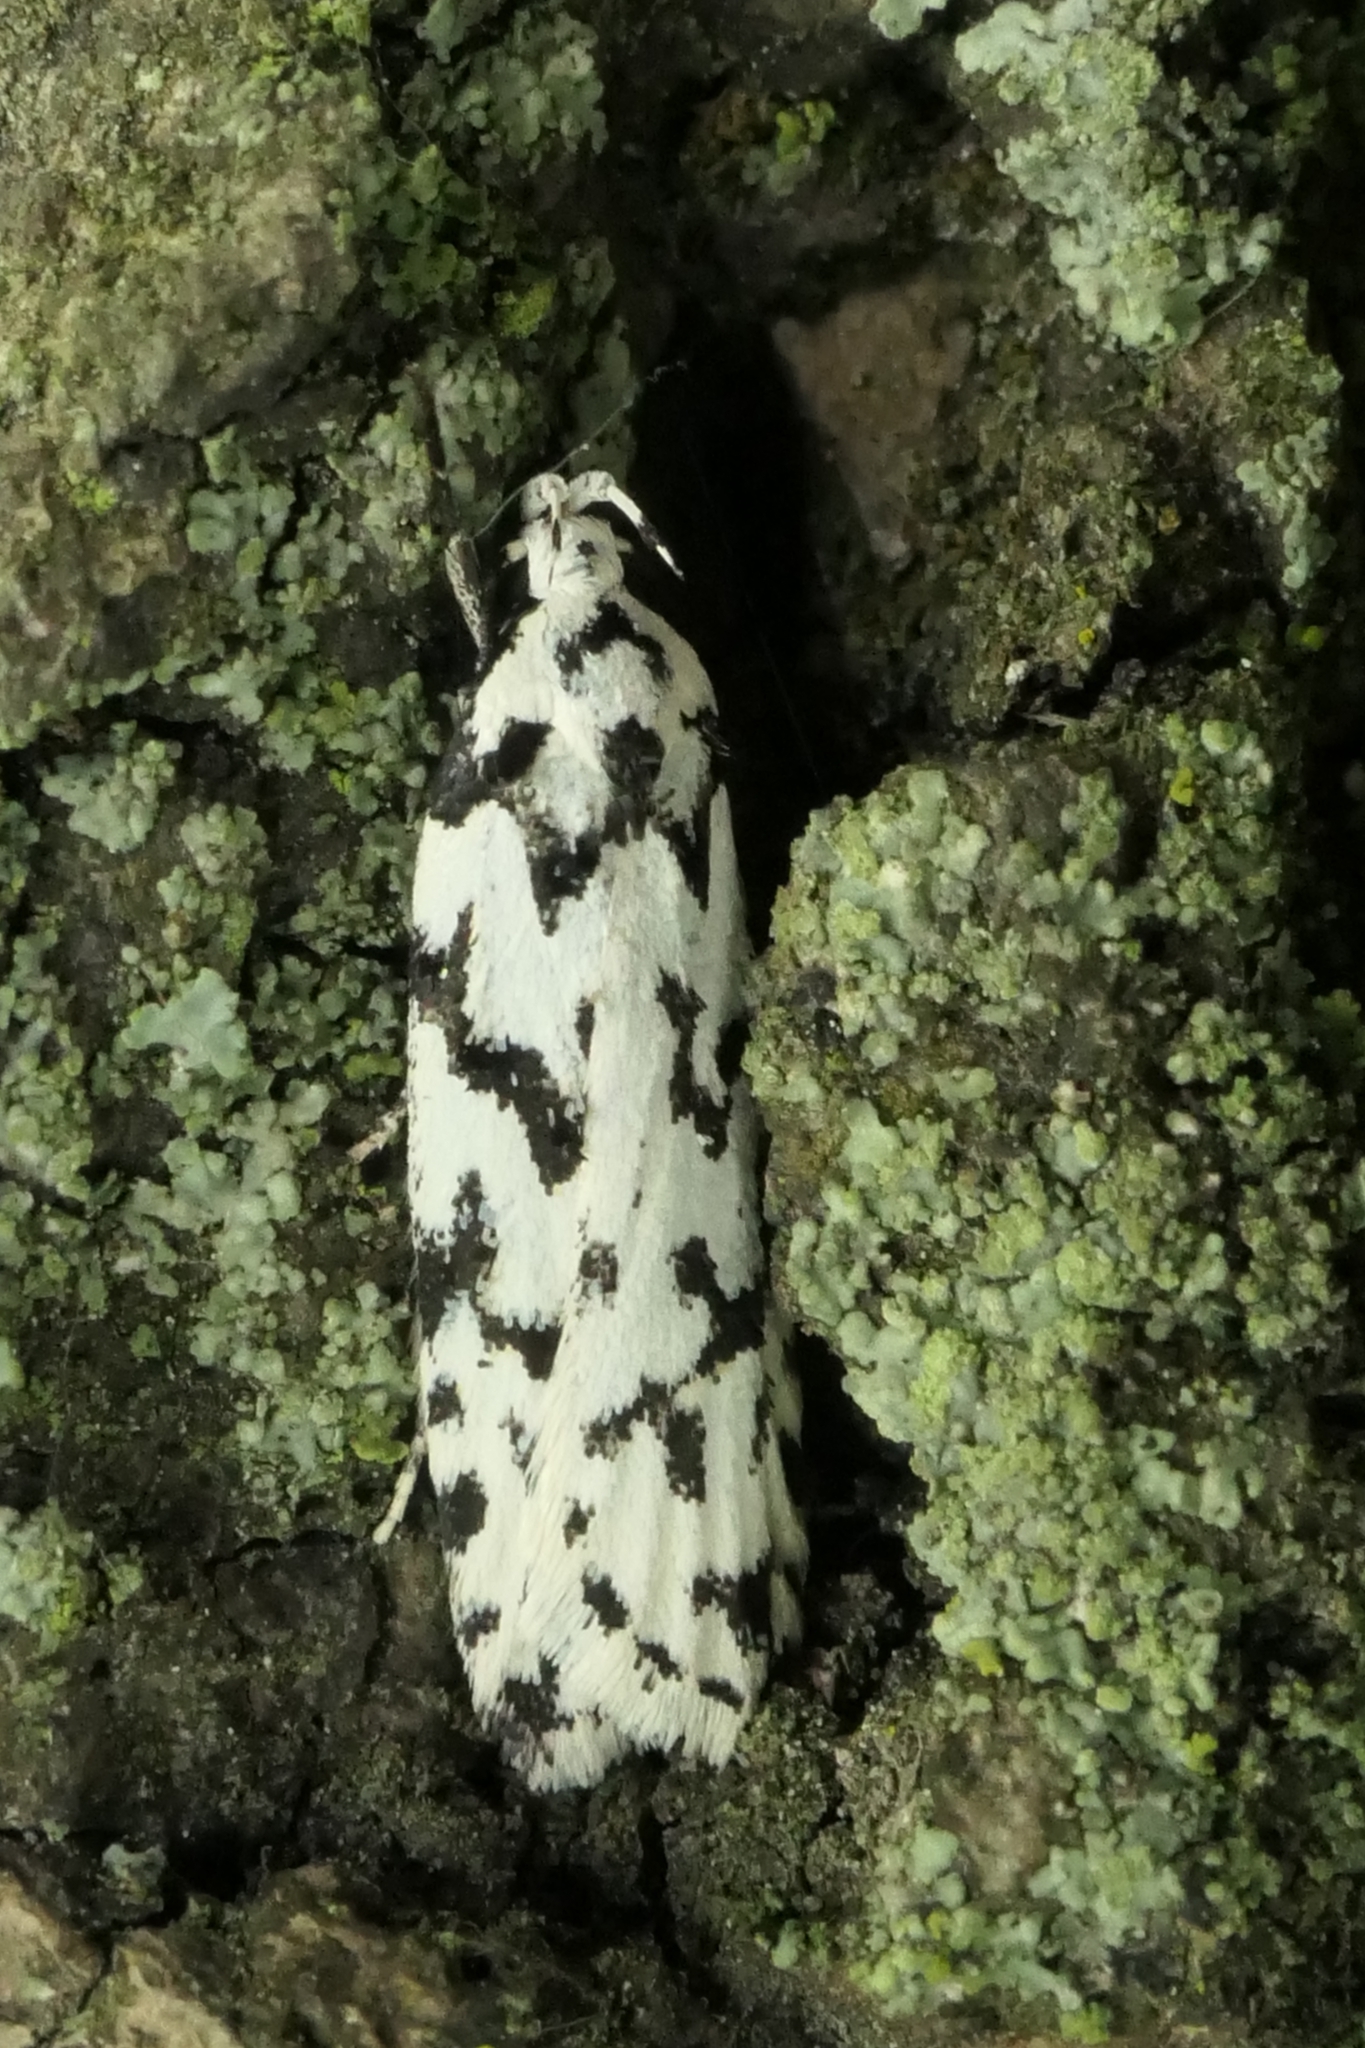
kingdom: Animalia
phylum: Arthropoda
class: Insecta
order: Lepidoptera
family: Oecophoridae
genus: Izatha
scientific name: Izatha katadiktya
